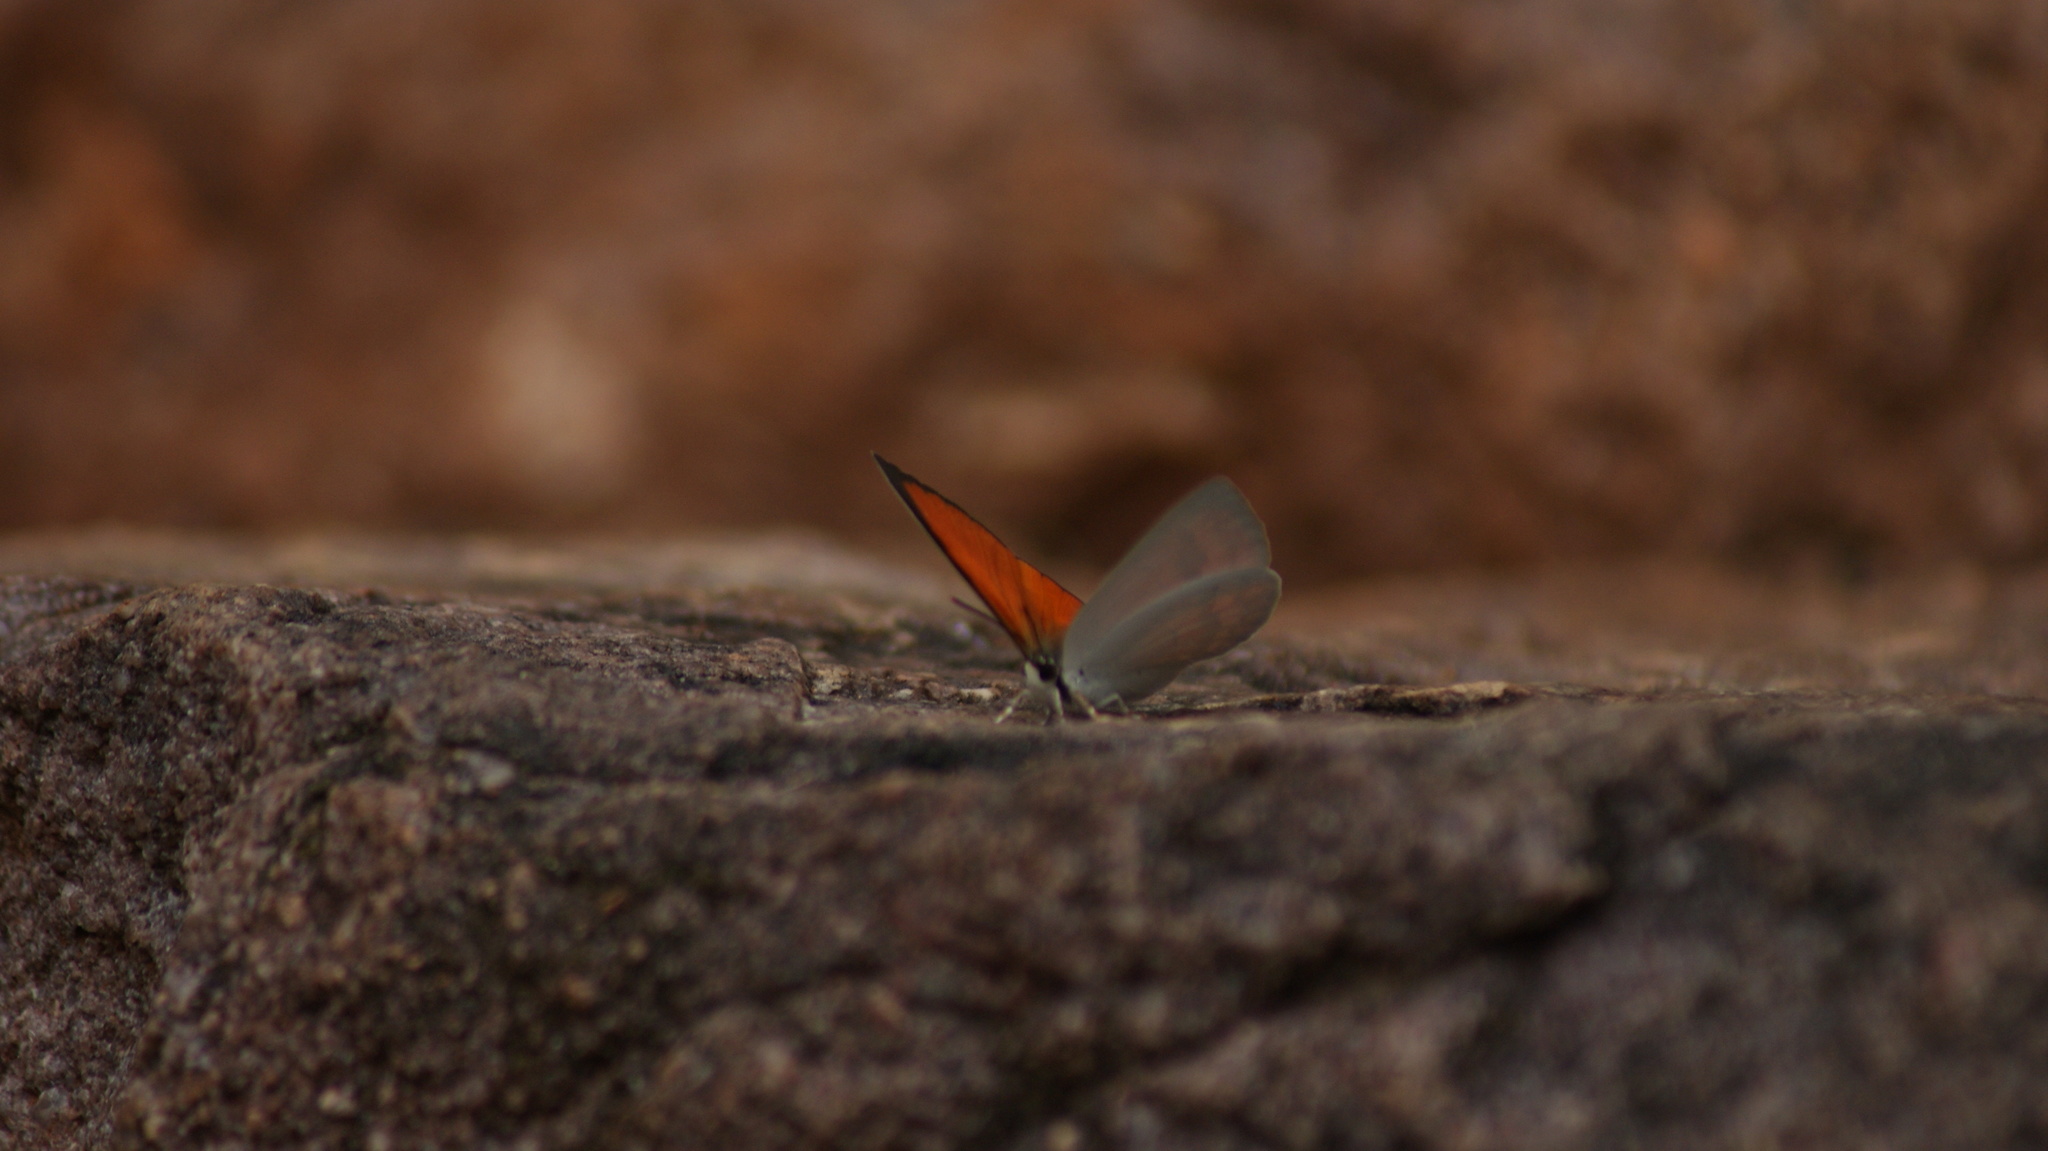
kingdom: Animalia
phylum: Arthropoda
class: Insecta
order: Lepidoptera
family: Lycaenidae
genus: Curetis
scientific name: Curetis thetis
